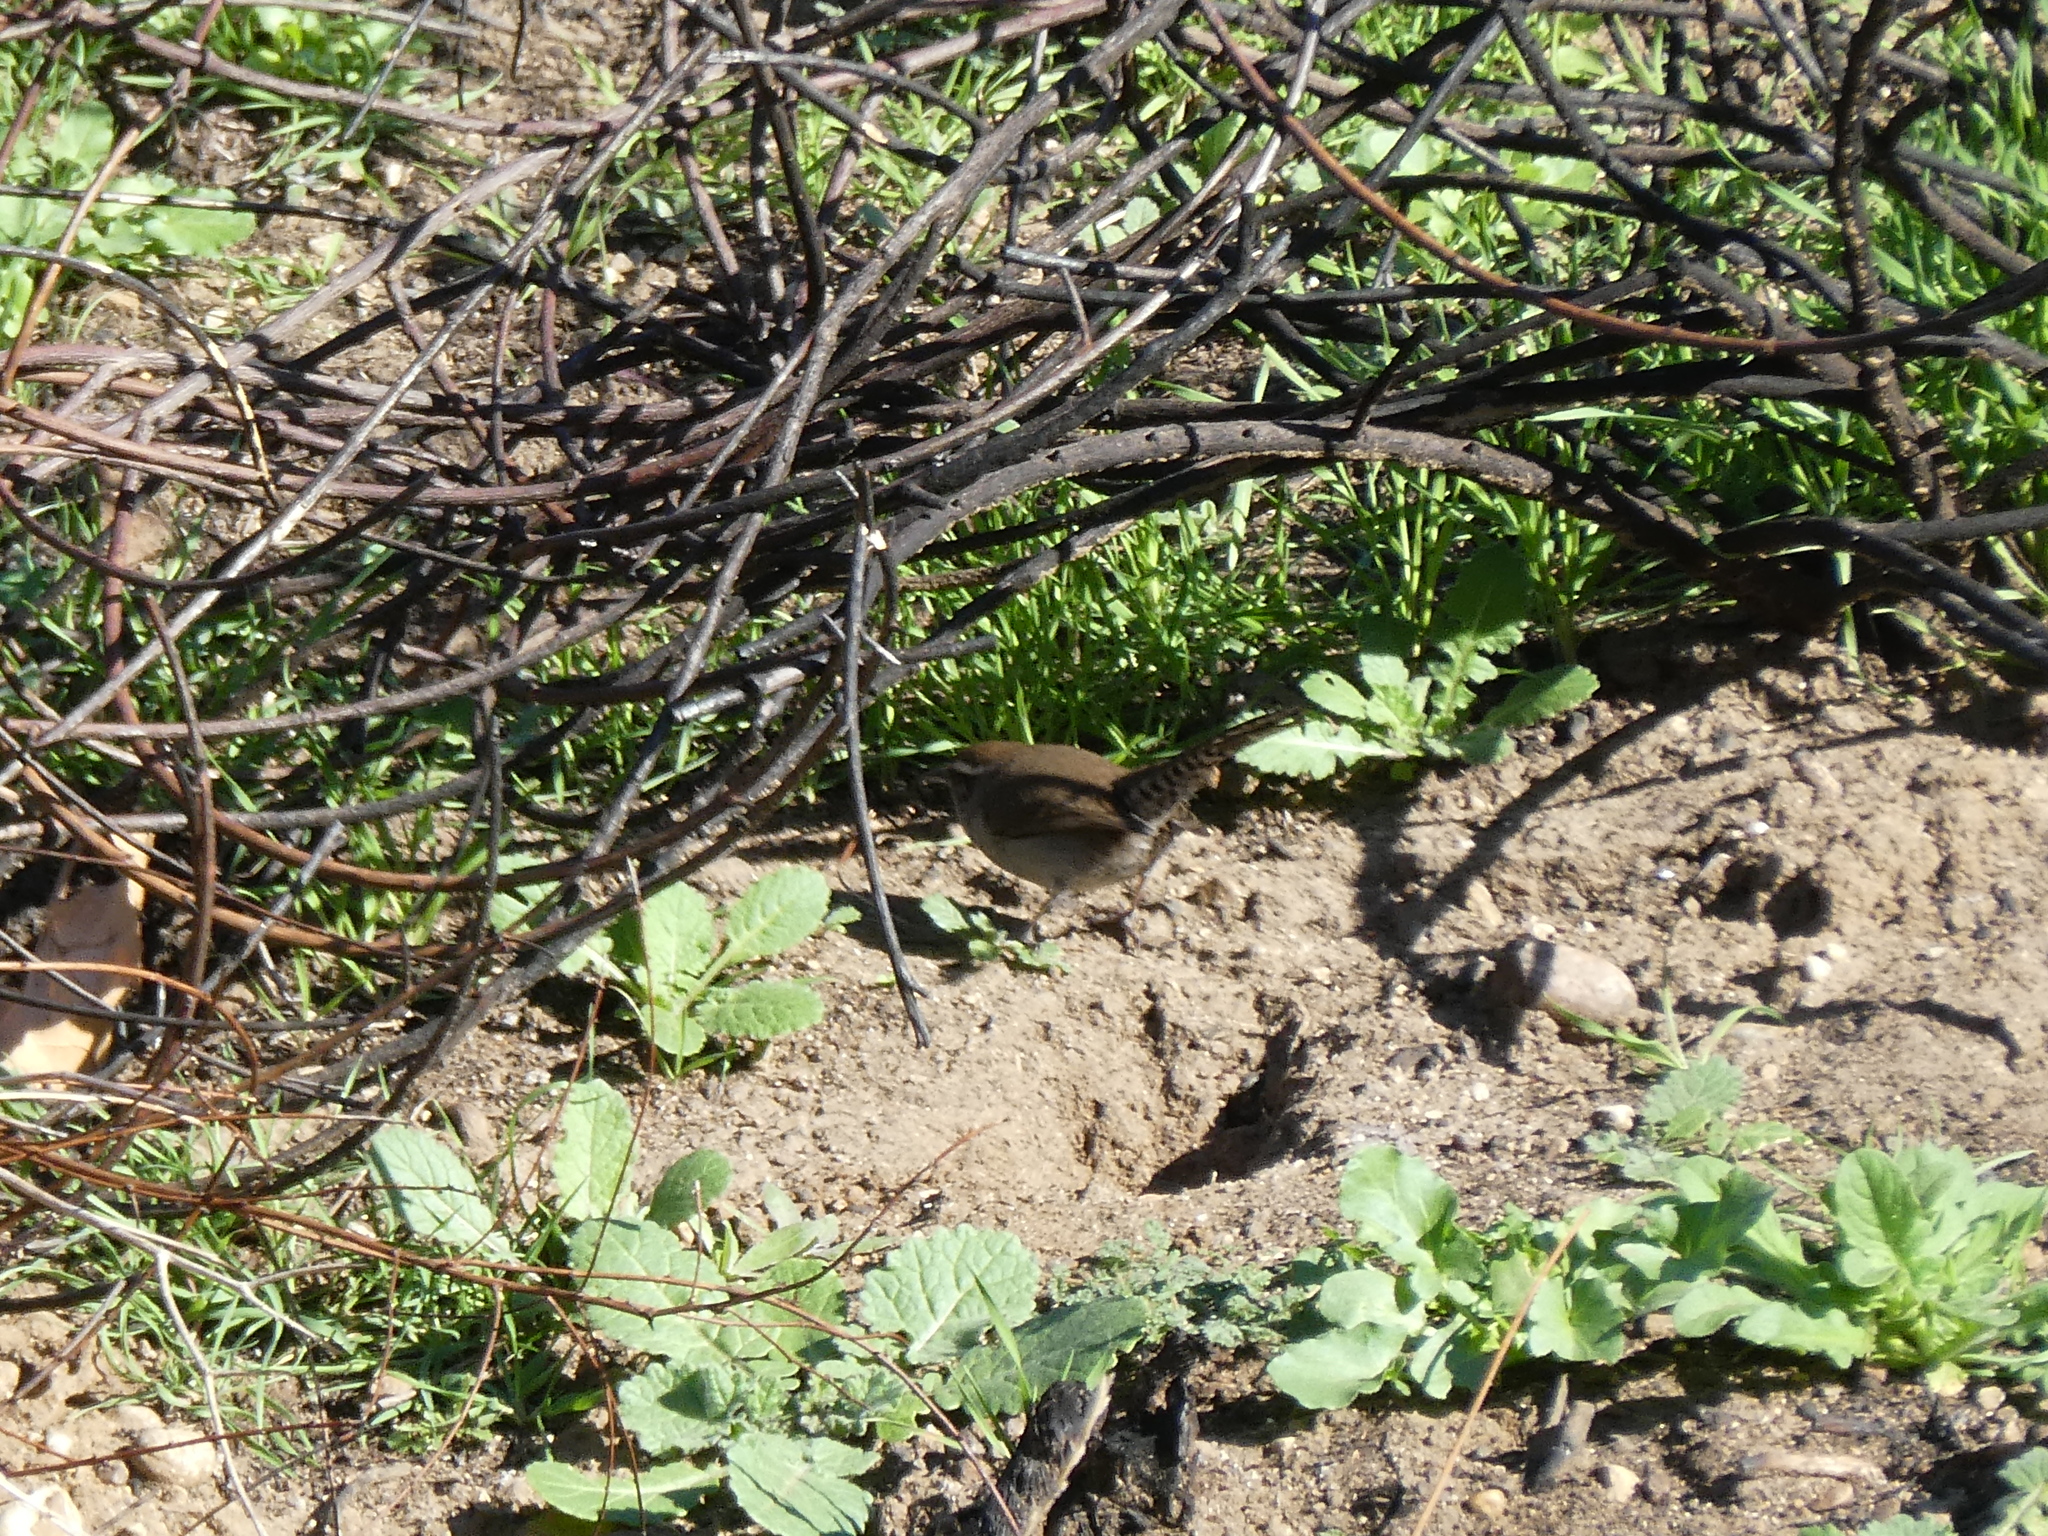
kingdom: Animalia
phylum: Chordata
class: Aves
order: Passeriformes
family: Troglodytidae
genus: Thryomanes
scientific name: Thryomanes bewickii
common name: Bewick's wren
